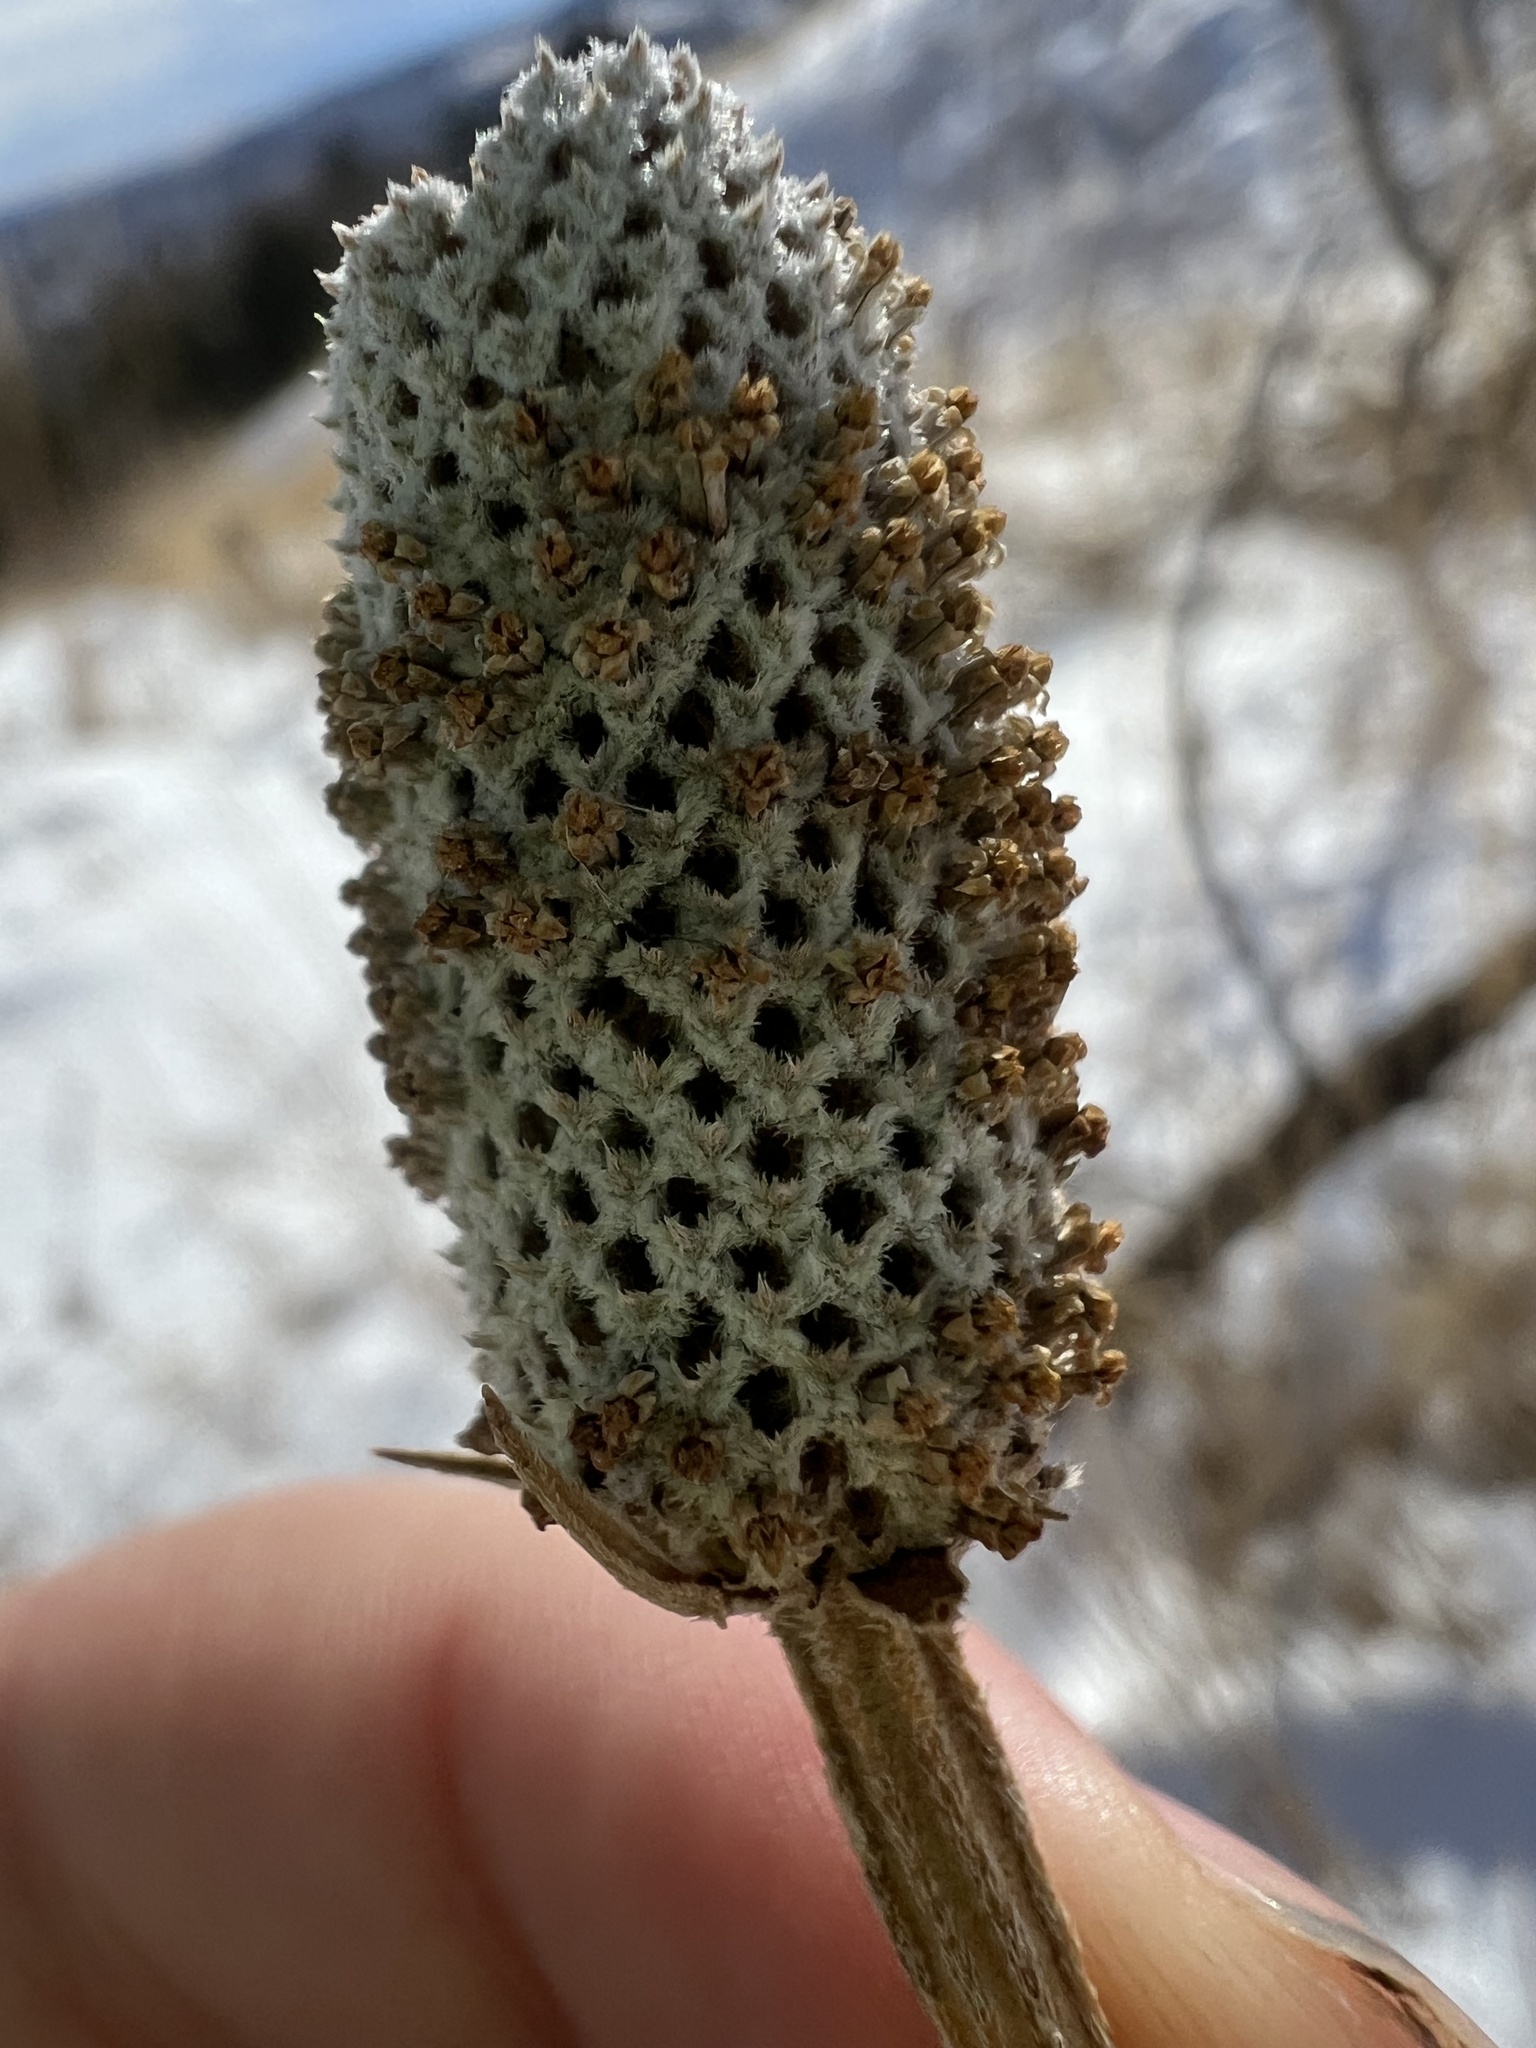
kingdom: Plantae
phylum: Tracheophyta
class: Magnoliopsida
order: Asterales
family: Asteraceae
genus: Ratibida
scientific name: Ratibida columnifera
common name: Prairie coneflower
